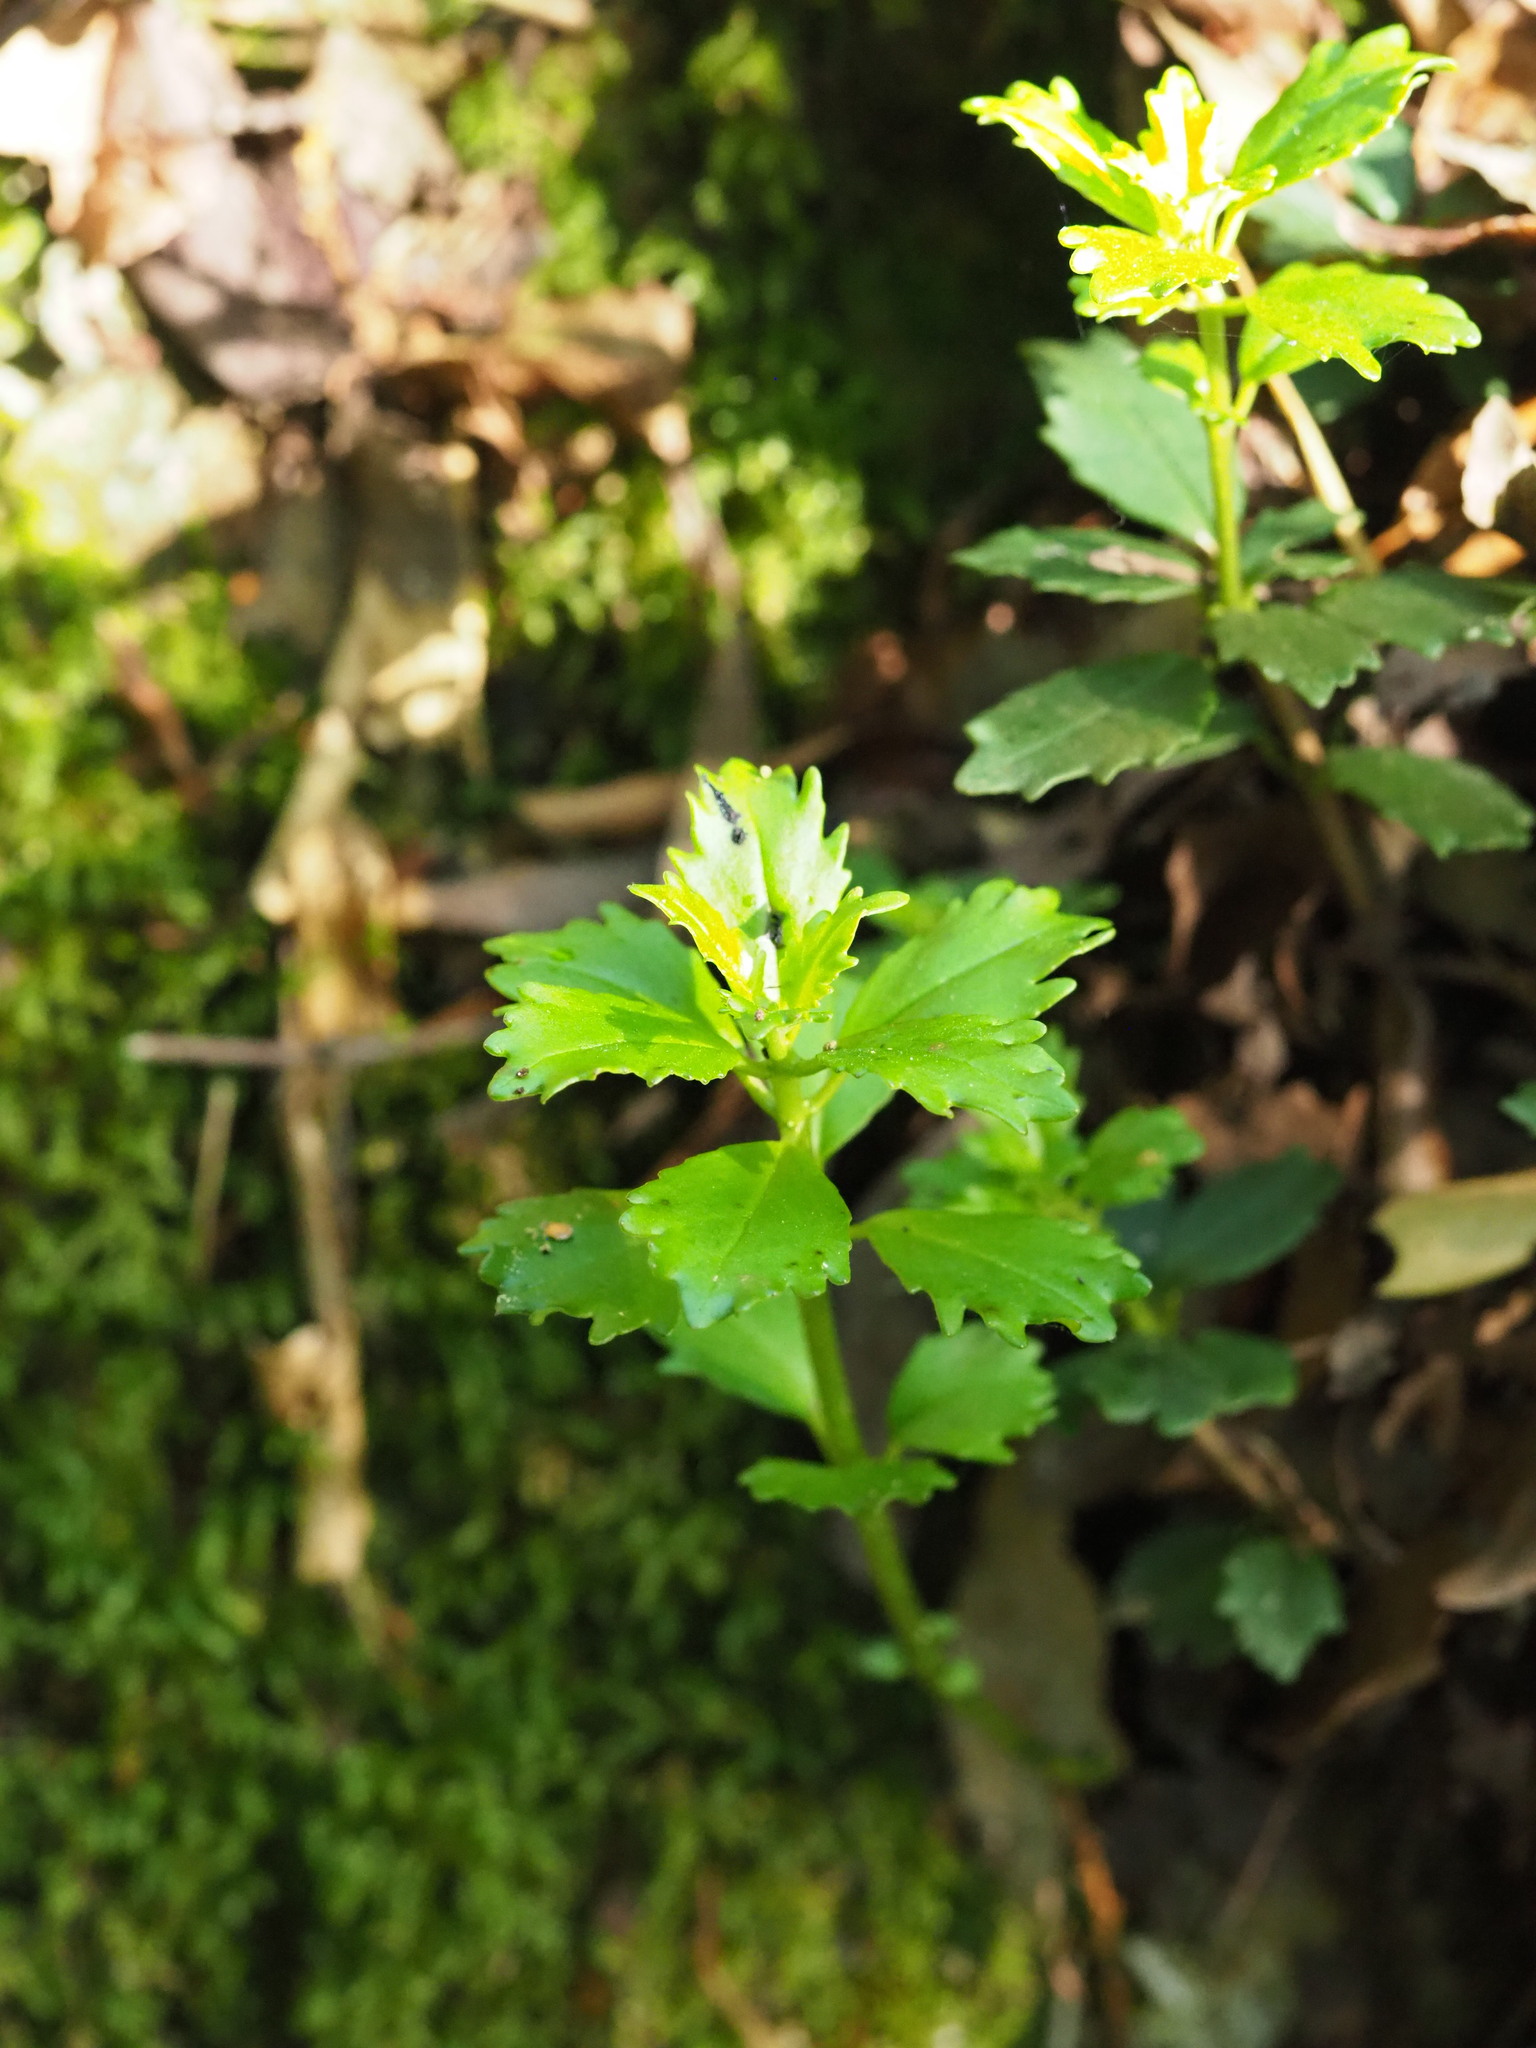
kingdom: Plantae
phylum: Tracheophyta
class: Magnoliopsida
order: Lamiales
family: Gesneriaceae
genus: Lysionotus
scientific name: Lysionotus pauciflorus
